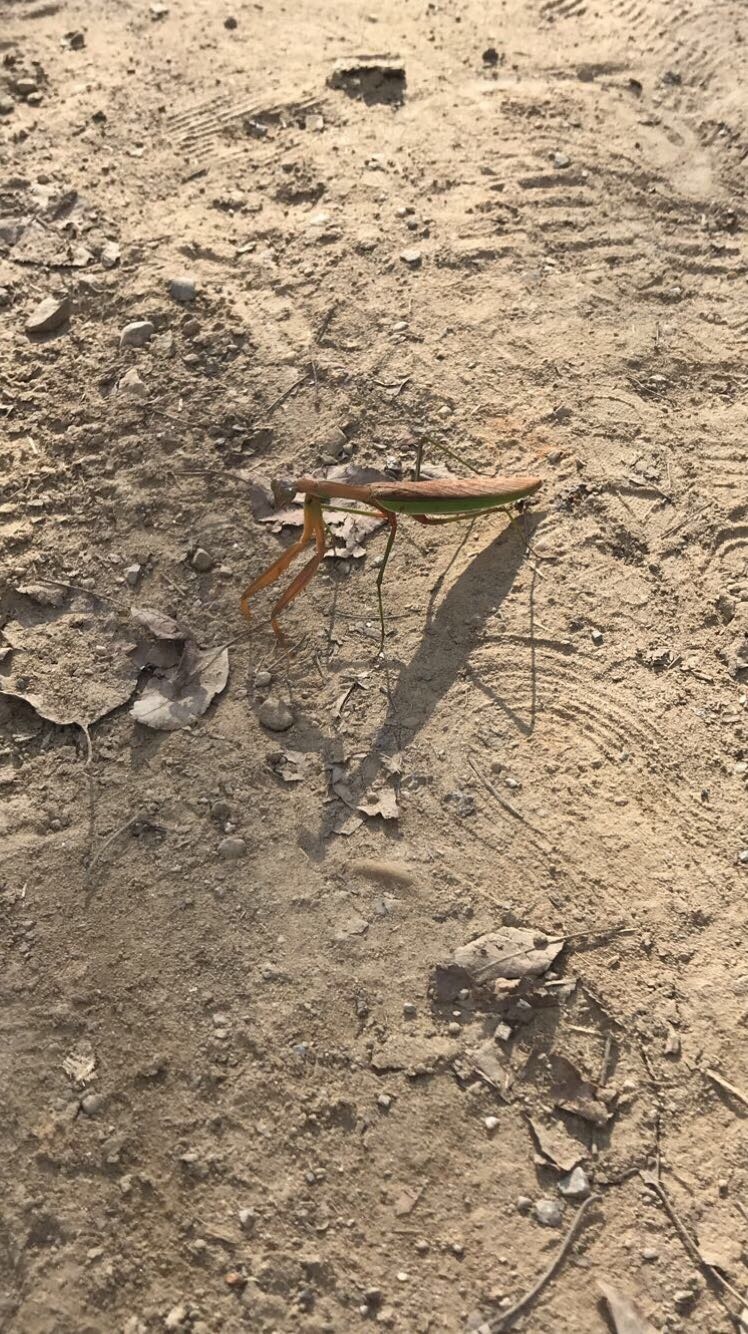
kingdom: Animalia
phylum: Arthropoda
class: Insecta
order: Mantodea
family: Mantidae
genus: Tenodera
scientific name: Tenodera sinensis
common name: Chinese mantis
